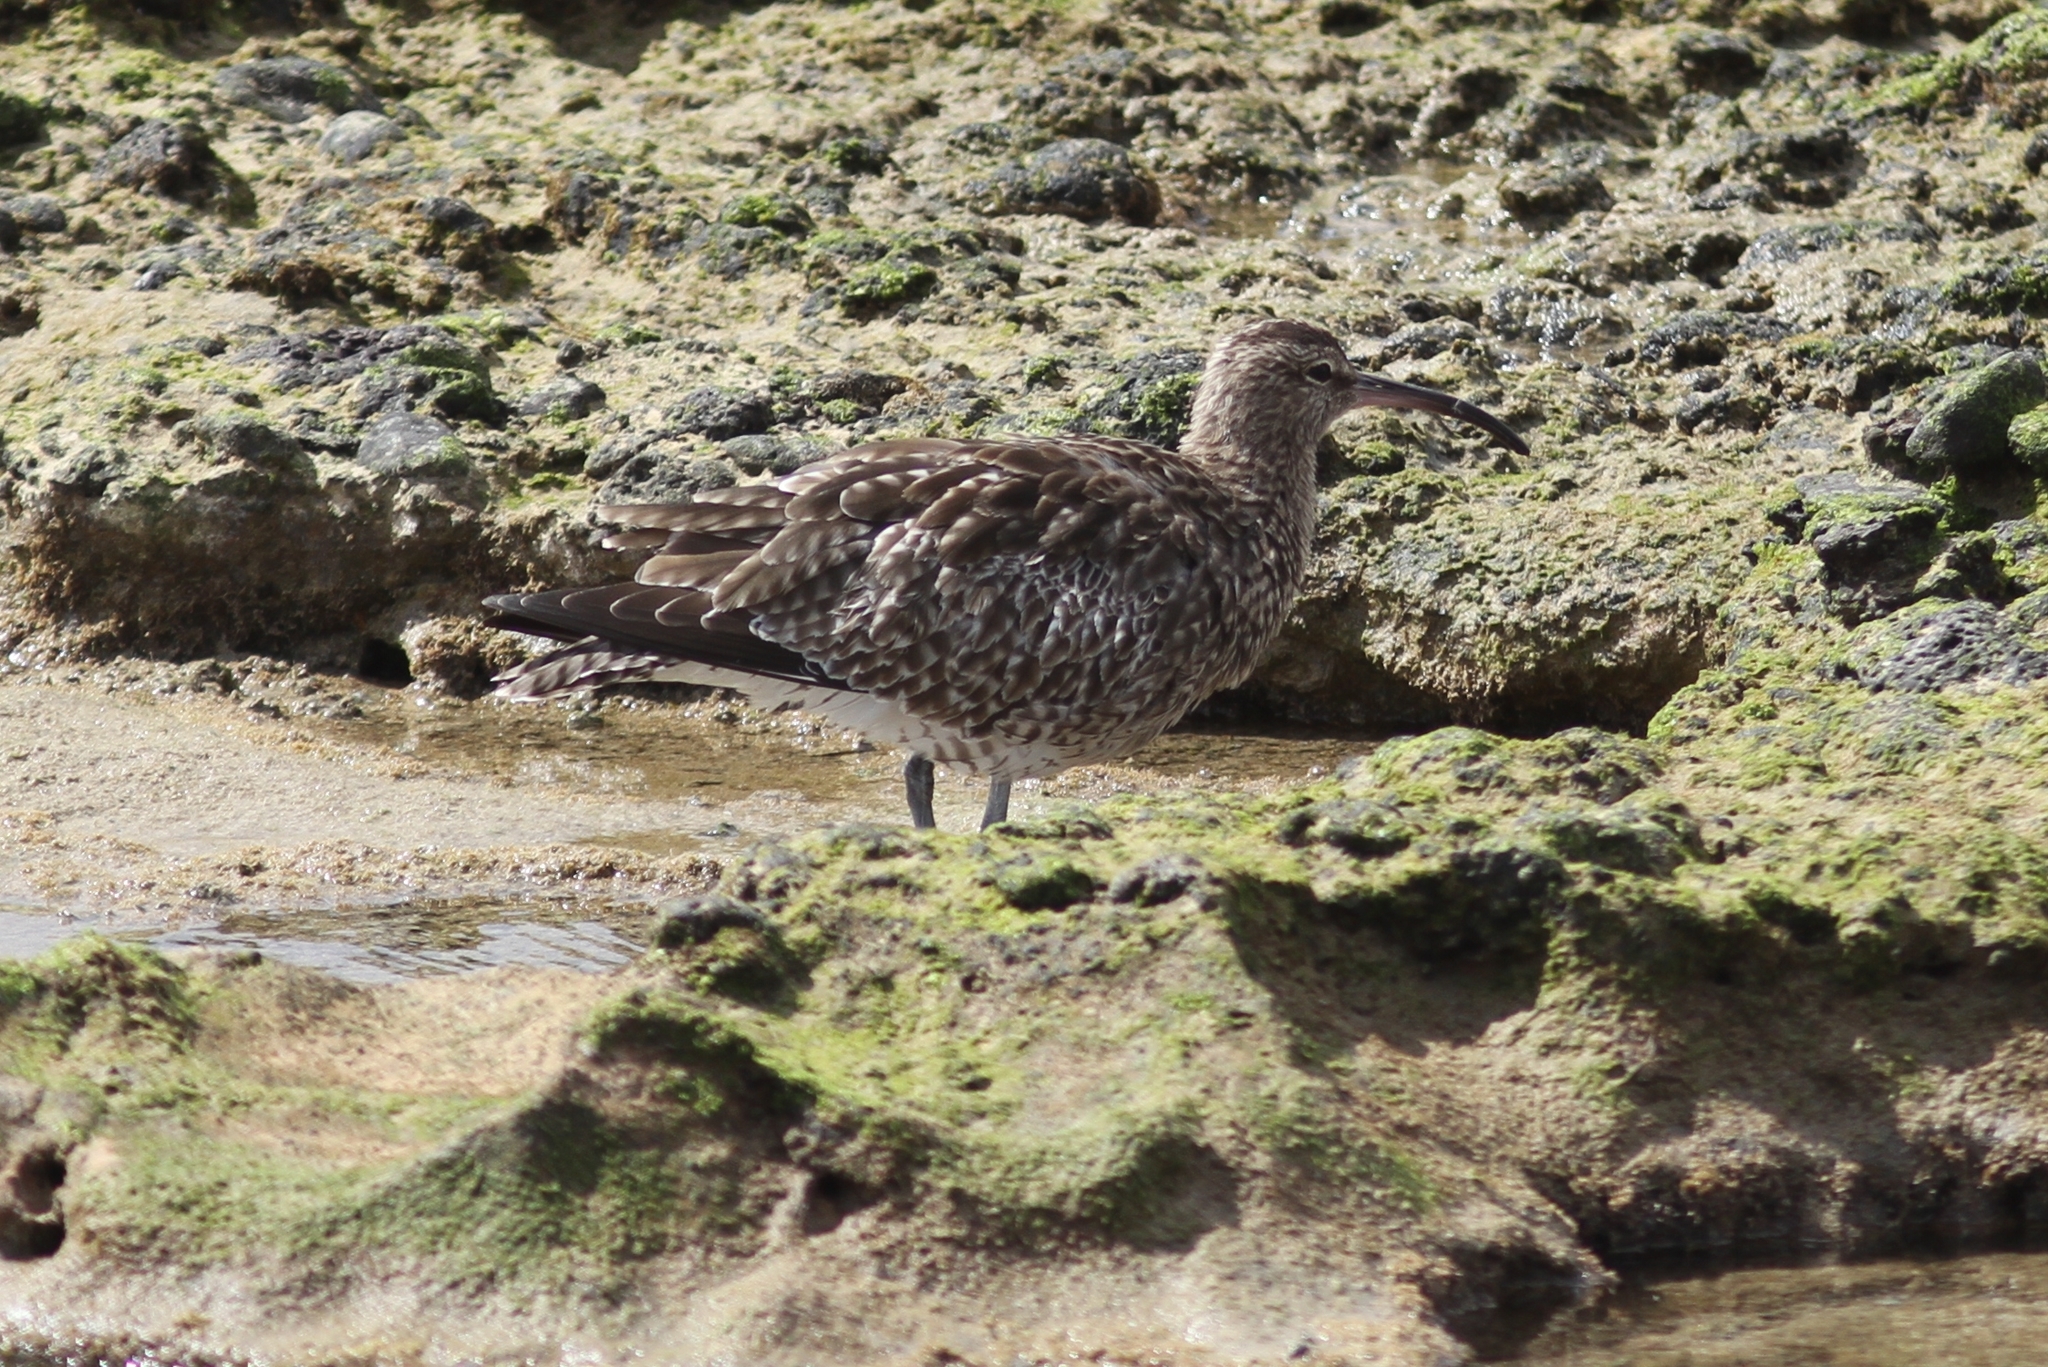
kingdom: Animalia
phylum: Chordata
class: Aves
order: Charadriiformes
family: Scolopacidae
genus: Numenius
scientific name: Numenius phaeopus
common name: Whimbrel
